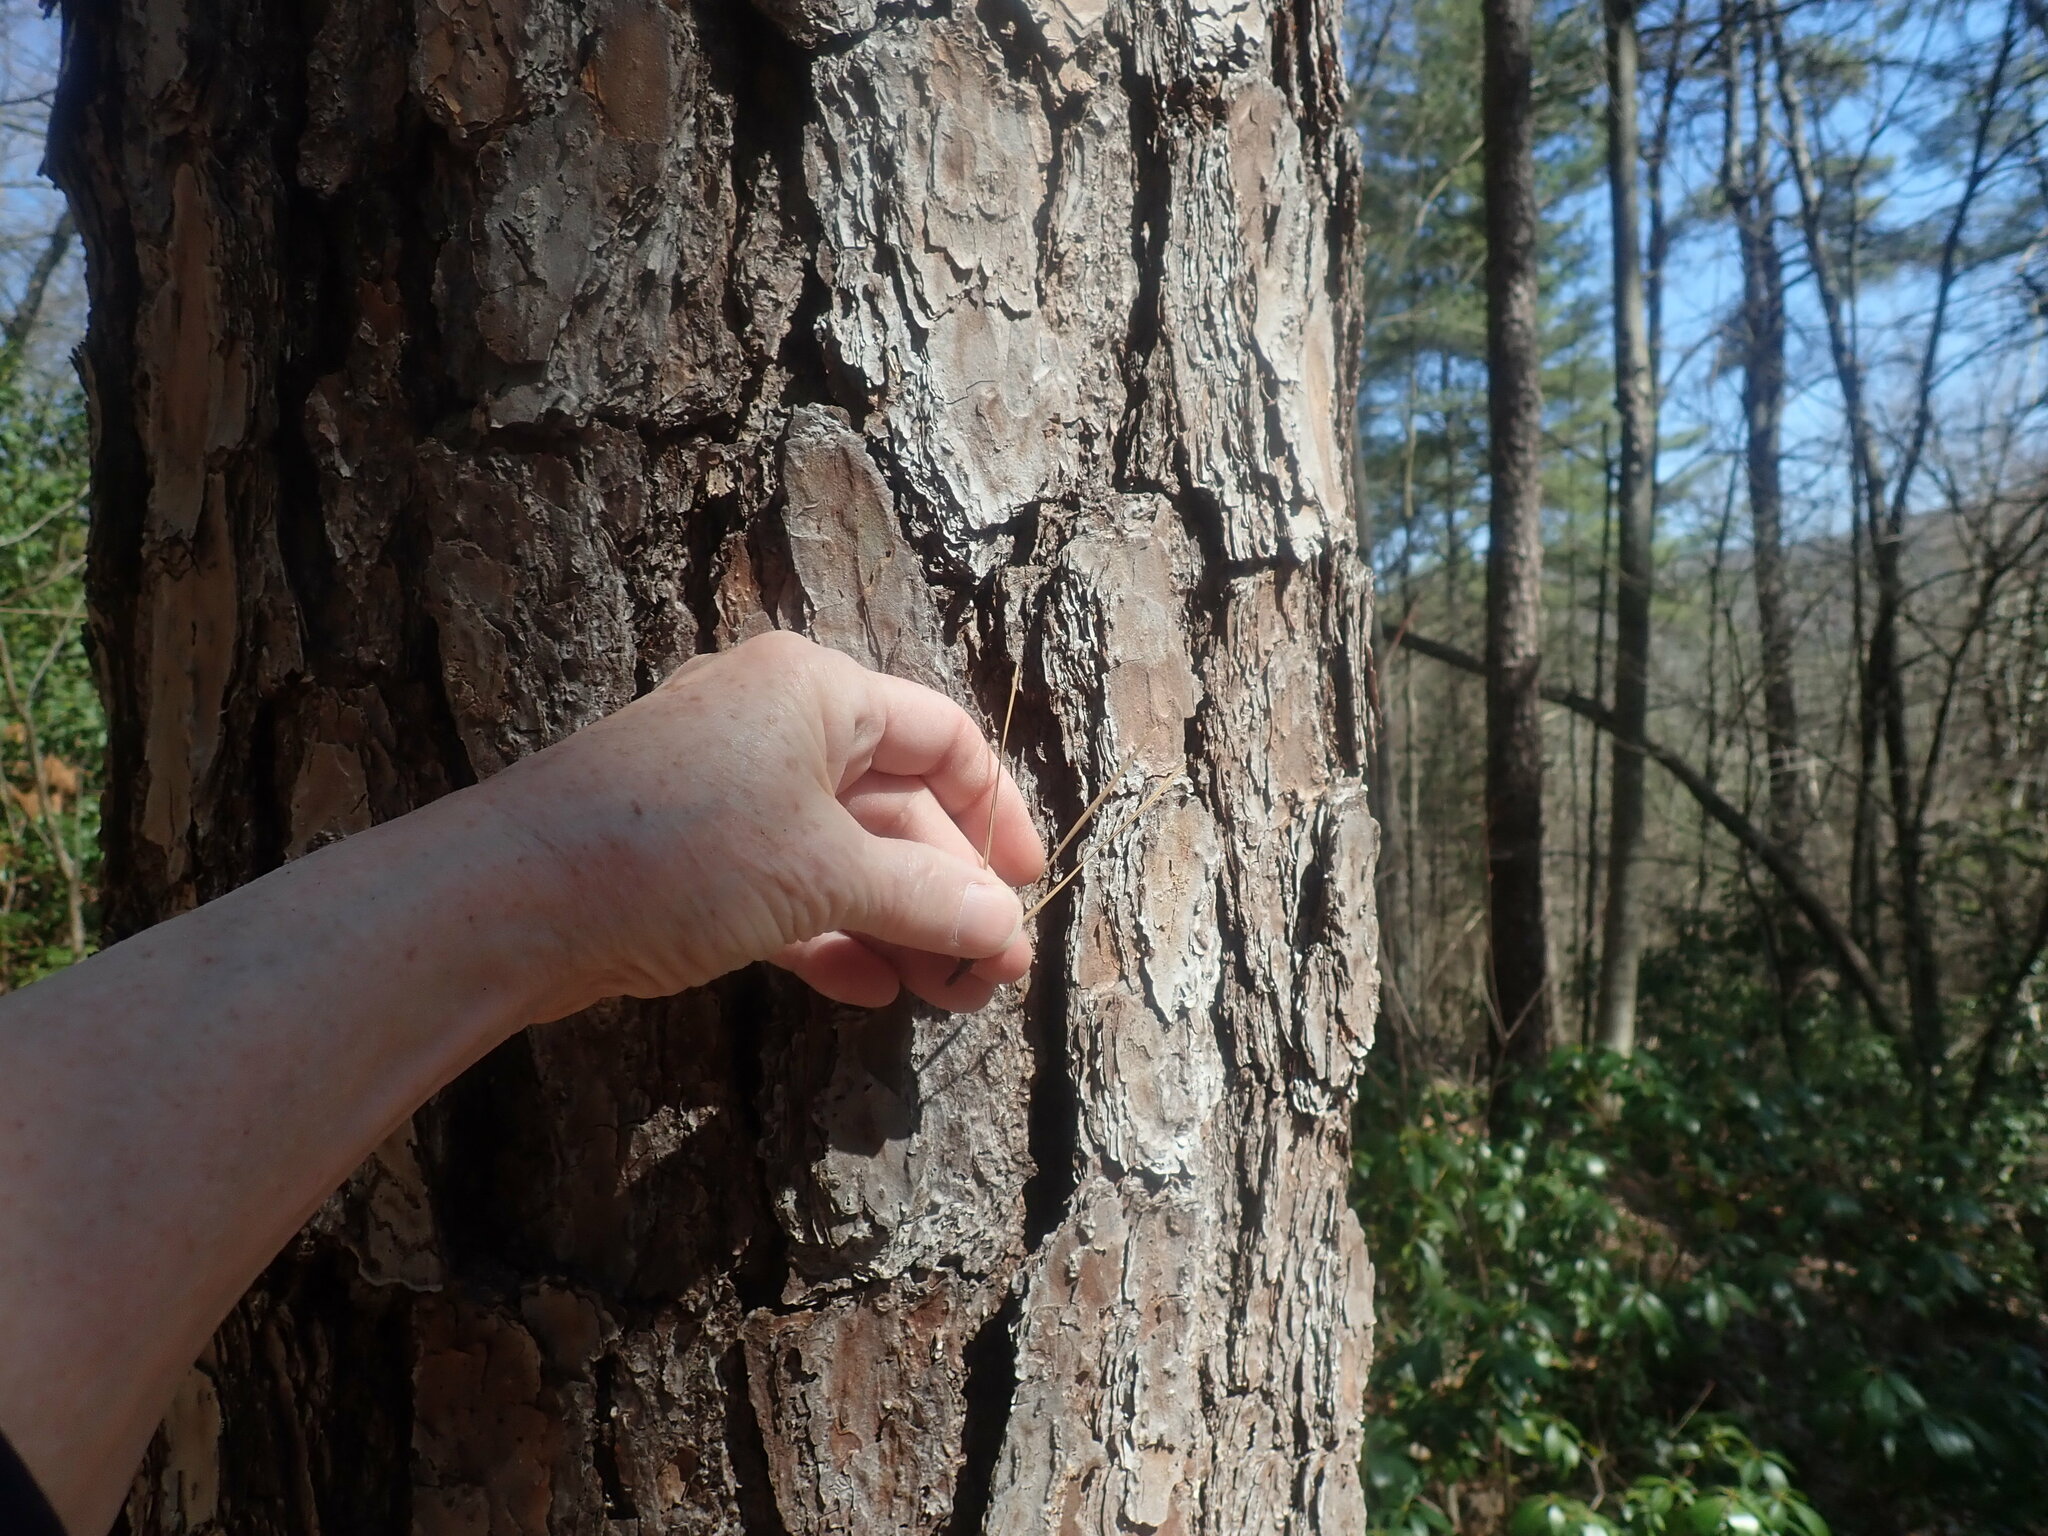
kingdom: Plantae
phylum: Tracheophyta
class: Pinopsida
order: Pinales
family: Pinaceae
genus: Pinus
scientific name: Pinus rigida
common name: Pitch pine
